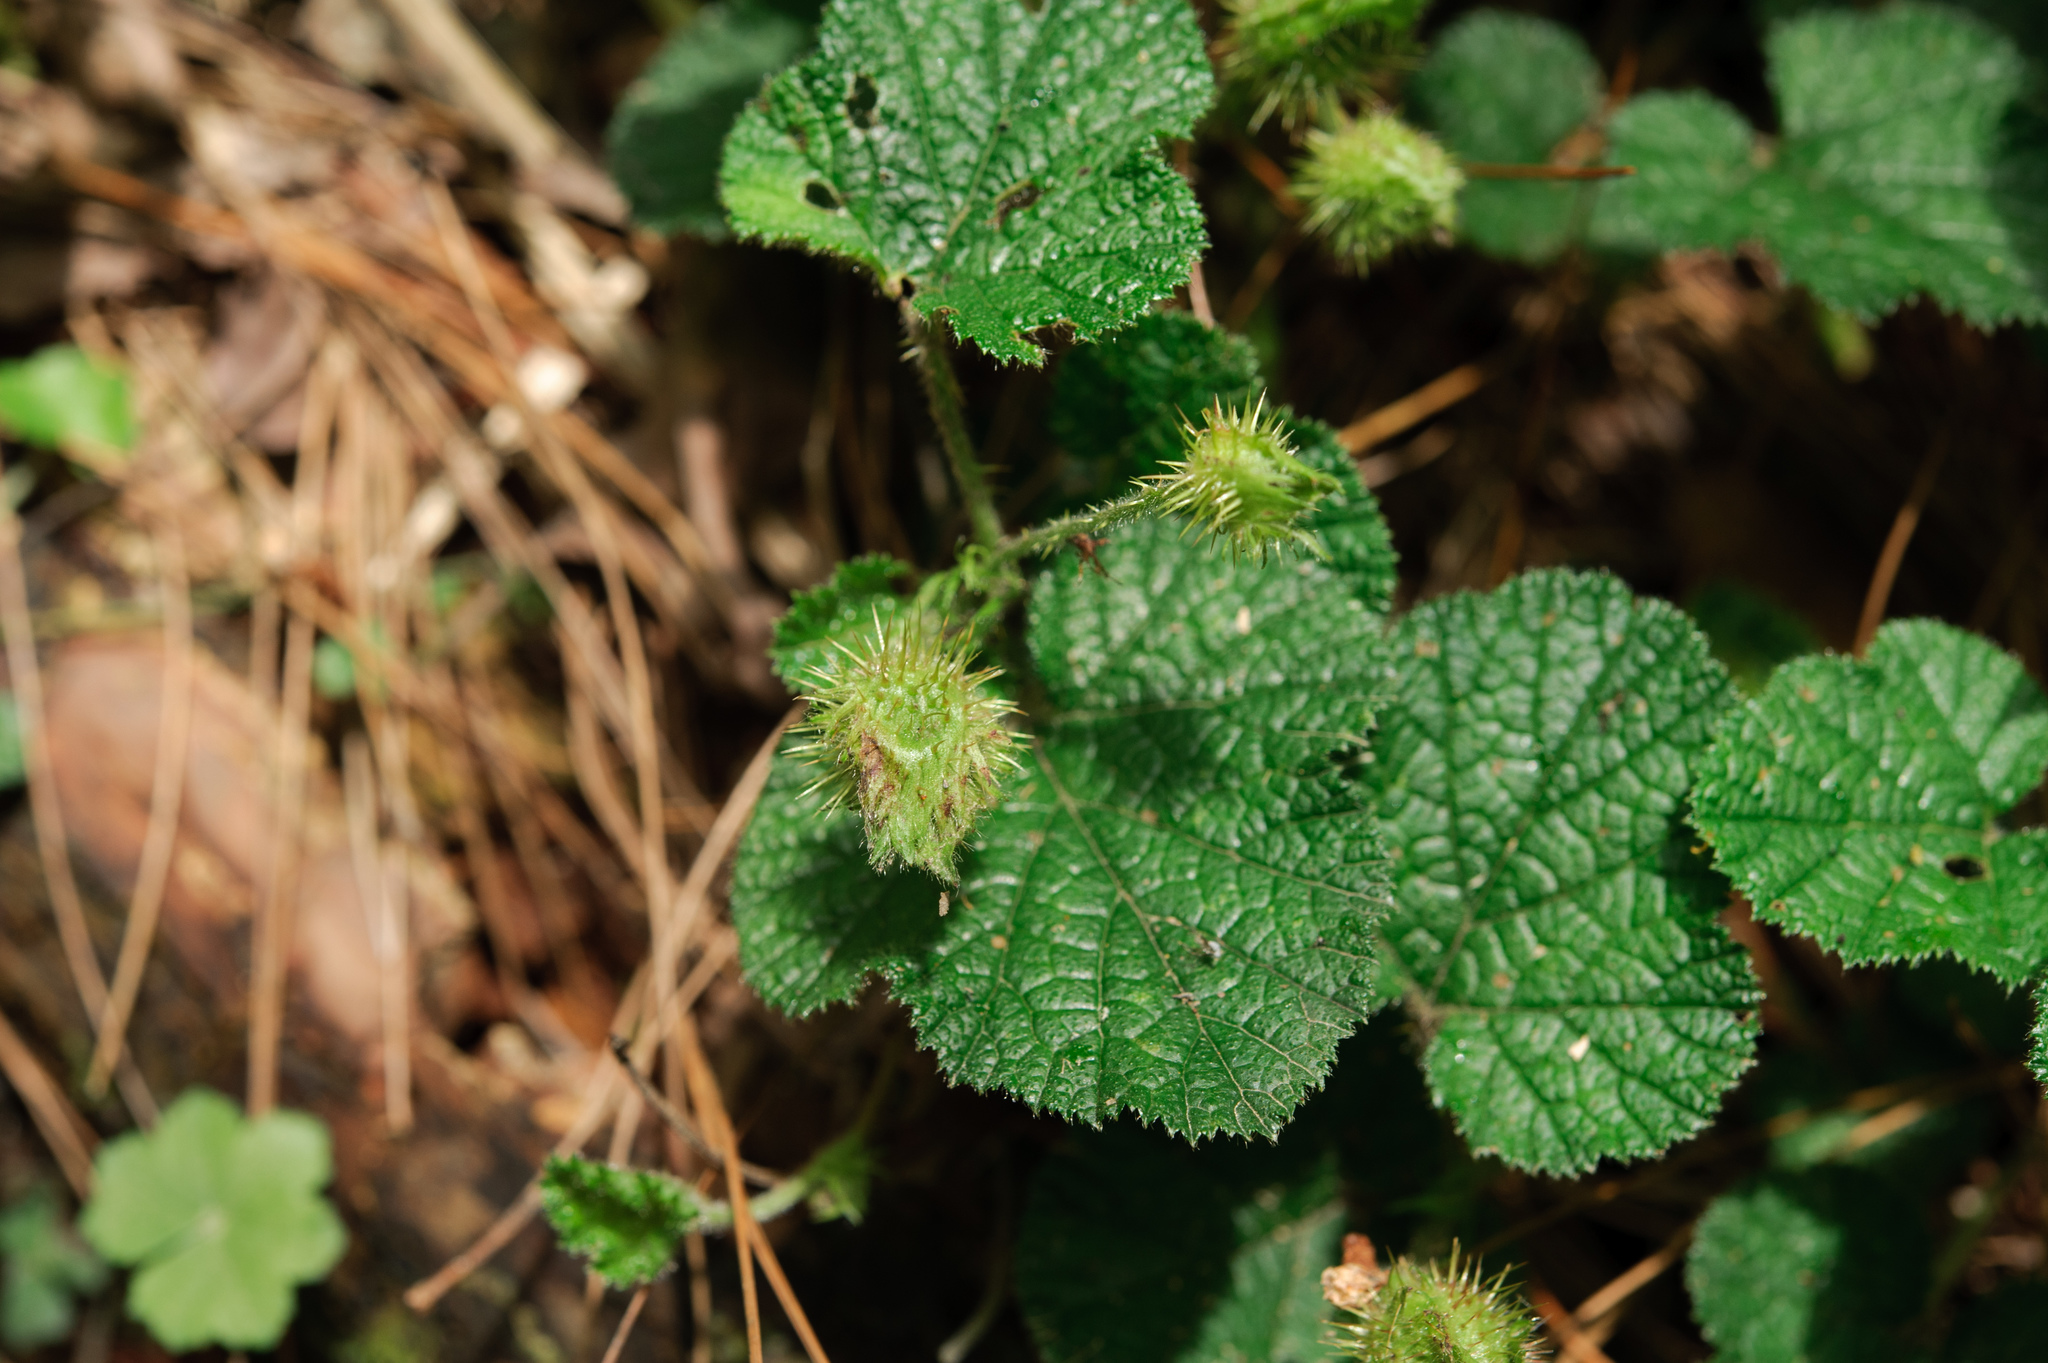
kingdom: Plantae
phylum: Tracheophyta
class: Magnoliopsida
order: Rosales
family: Rosaceae
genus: Rubus
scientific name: Rubus pectinellus
